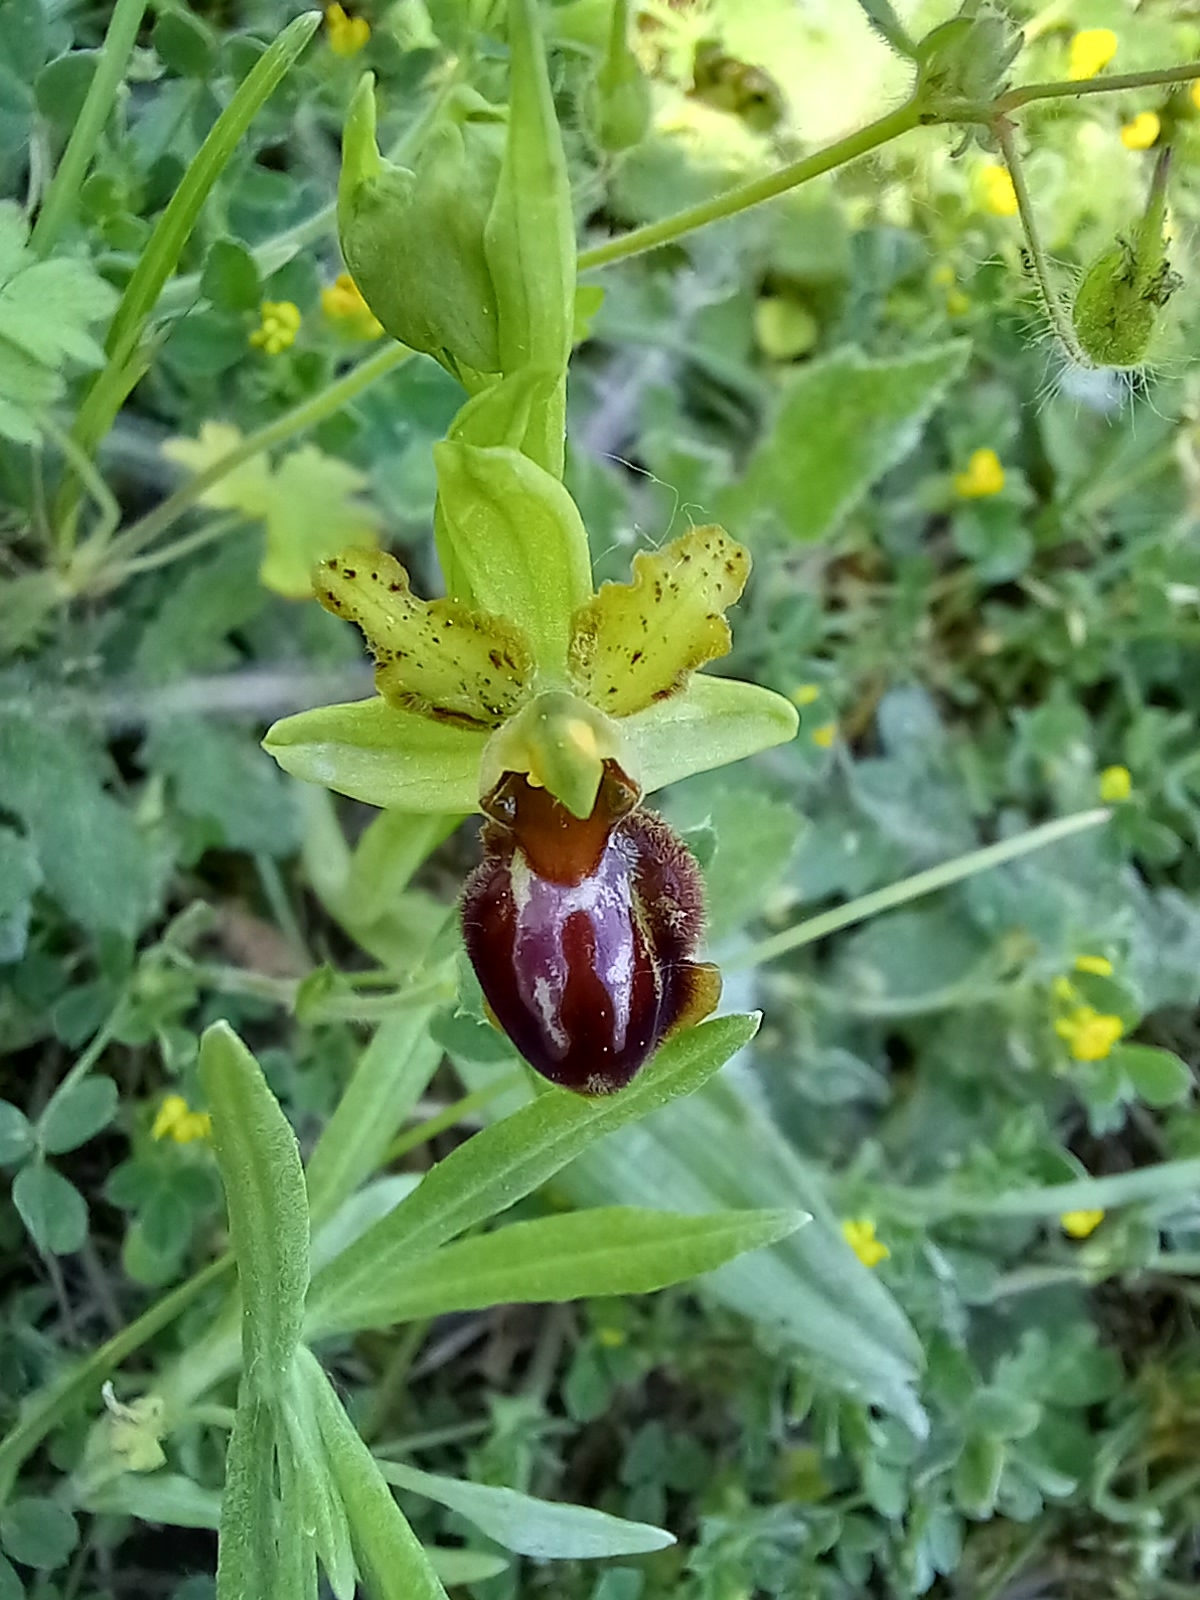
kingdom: Plantae
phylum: Tracheophyta
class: Liliopsida
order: Asparagales
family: Orchidaceae
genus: Ophrys
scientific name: Ophrys sphegodes
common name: Early spider-orchid
